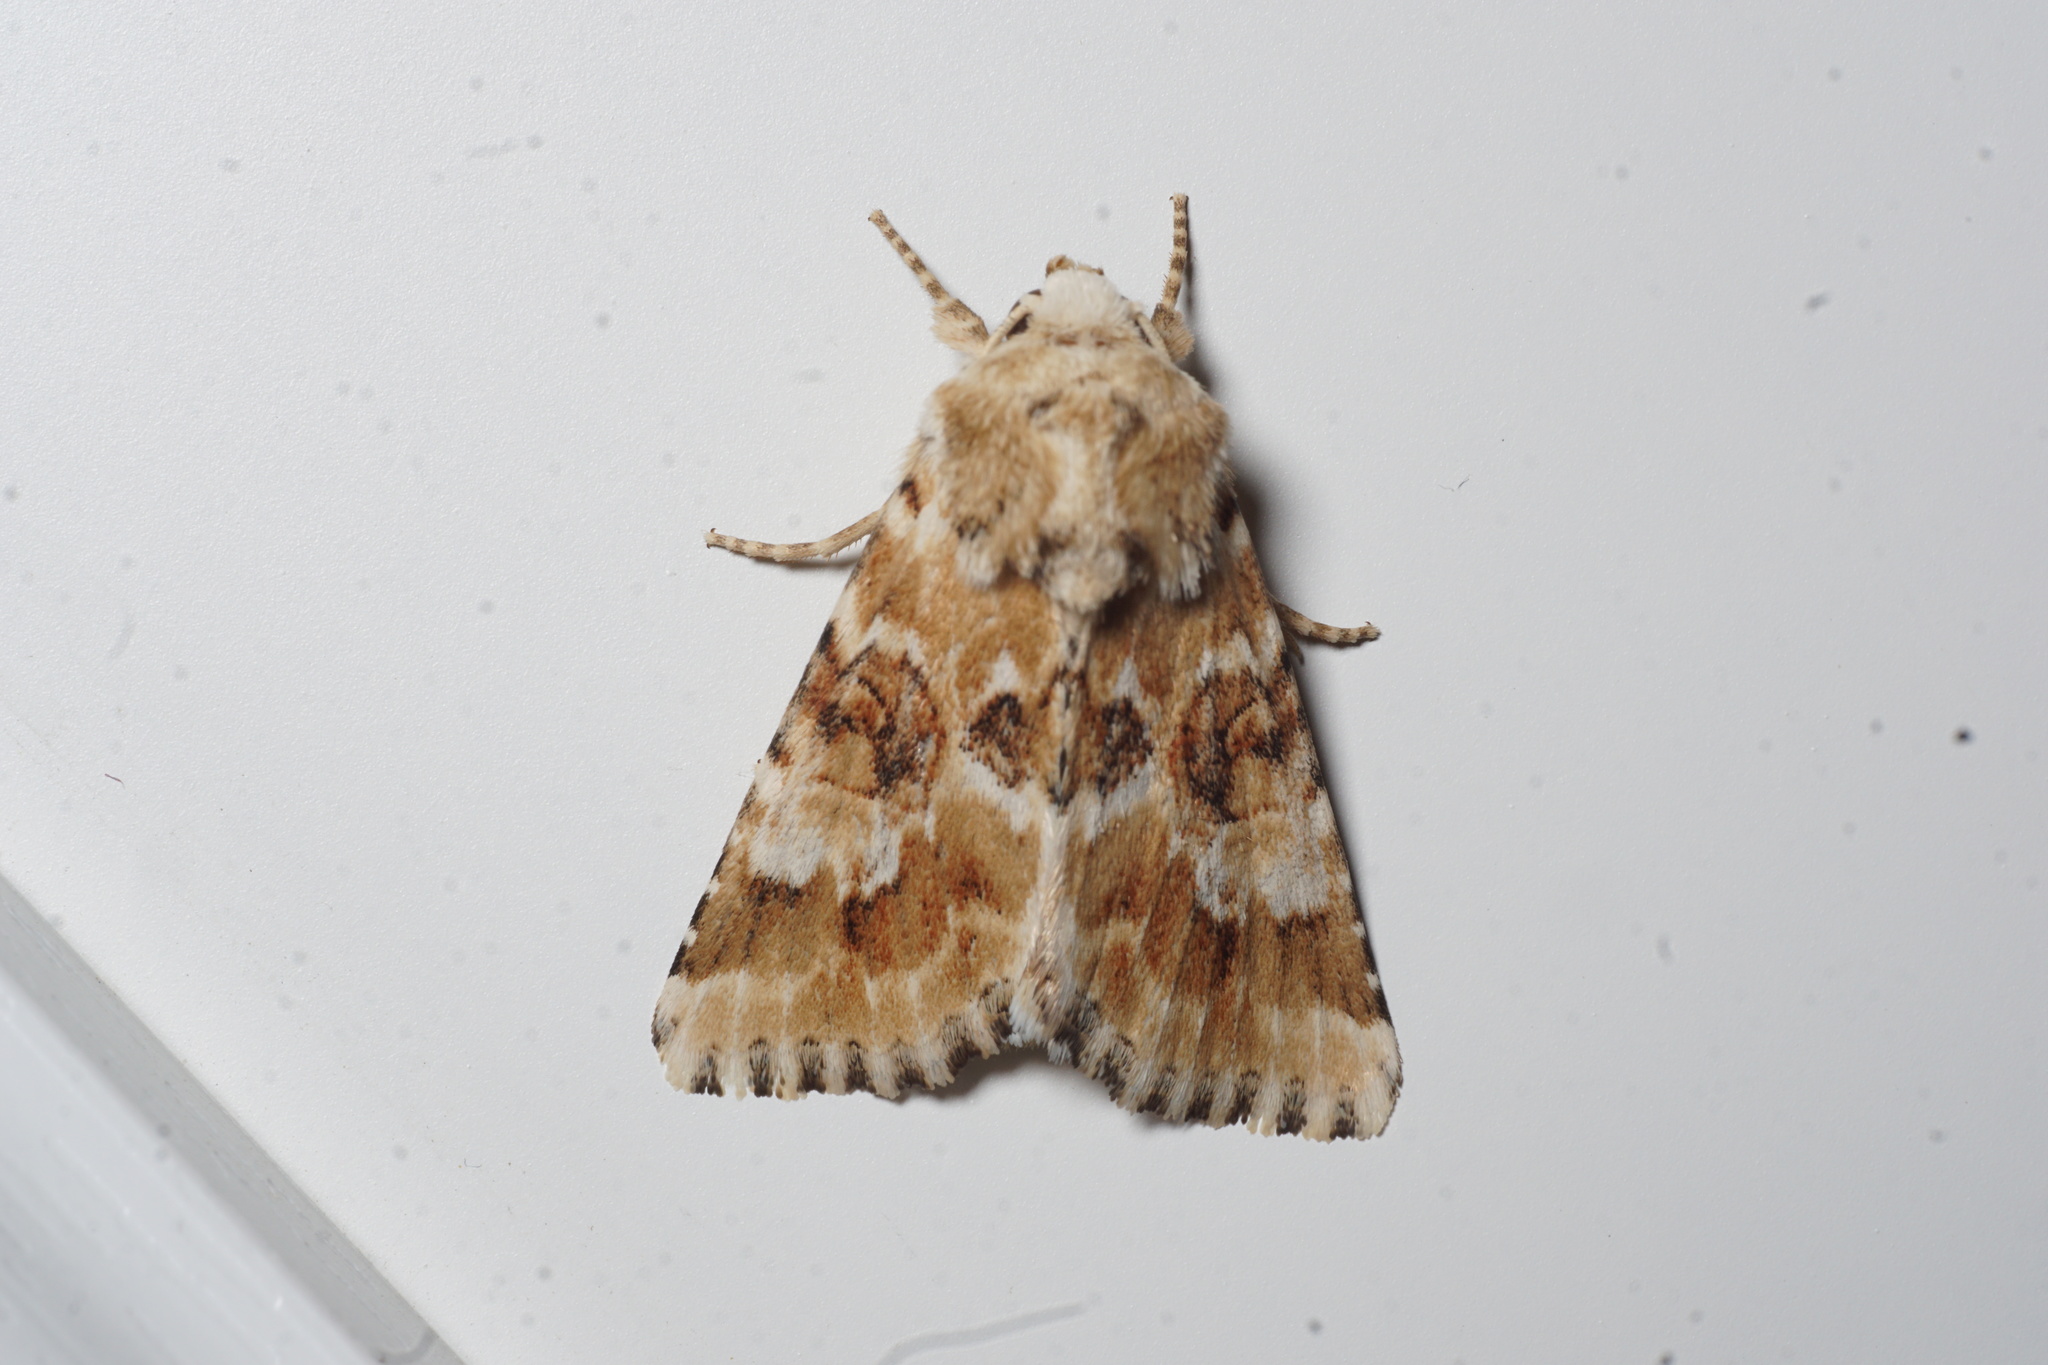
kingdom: Animalia
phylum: Arthropoda
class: Insecta
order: Lepidoptera
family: Noctuidae
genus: Eremobia
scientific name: Eremobia ochroleuca
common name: Dusky sallow
